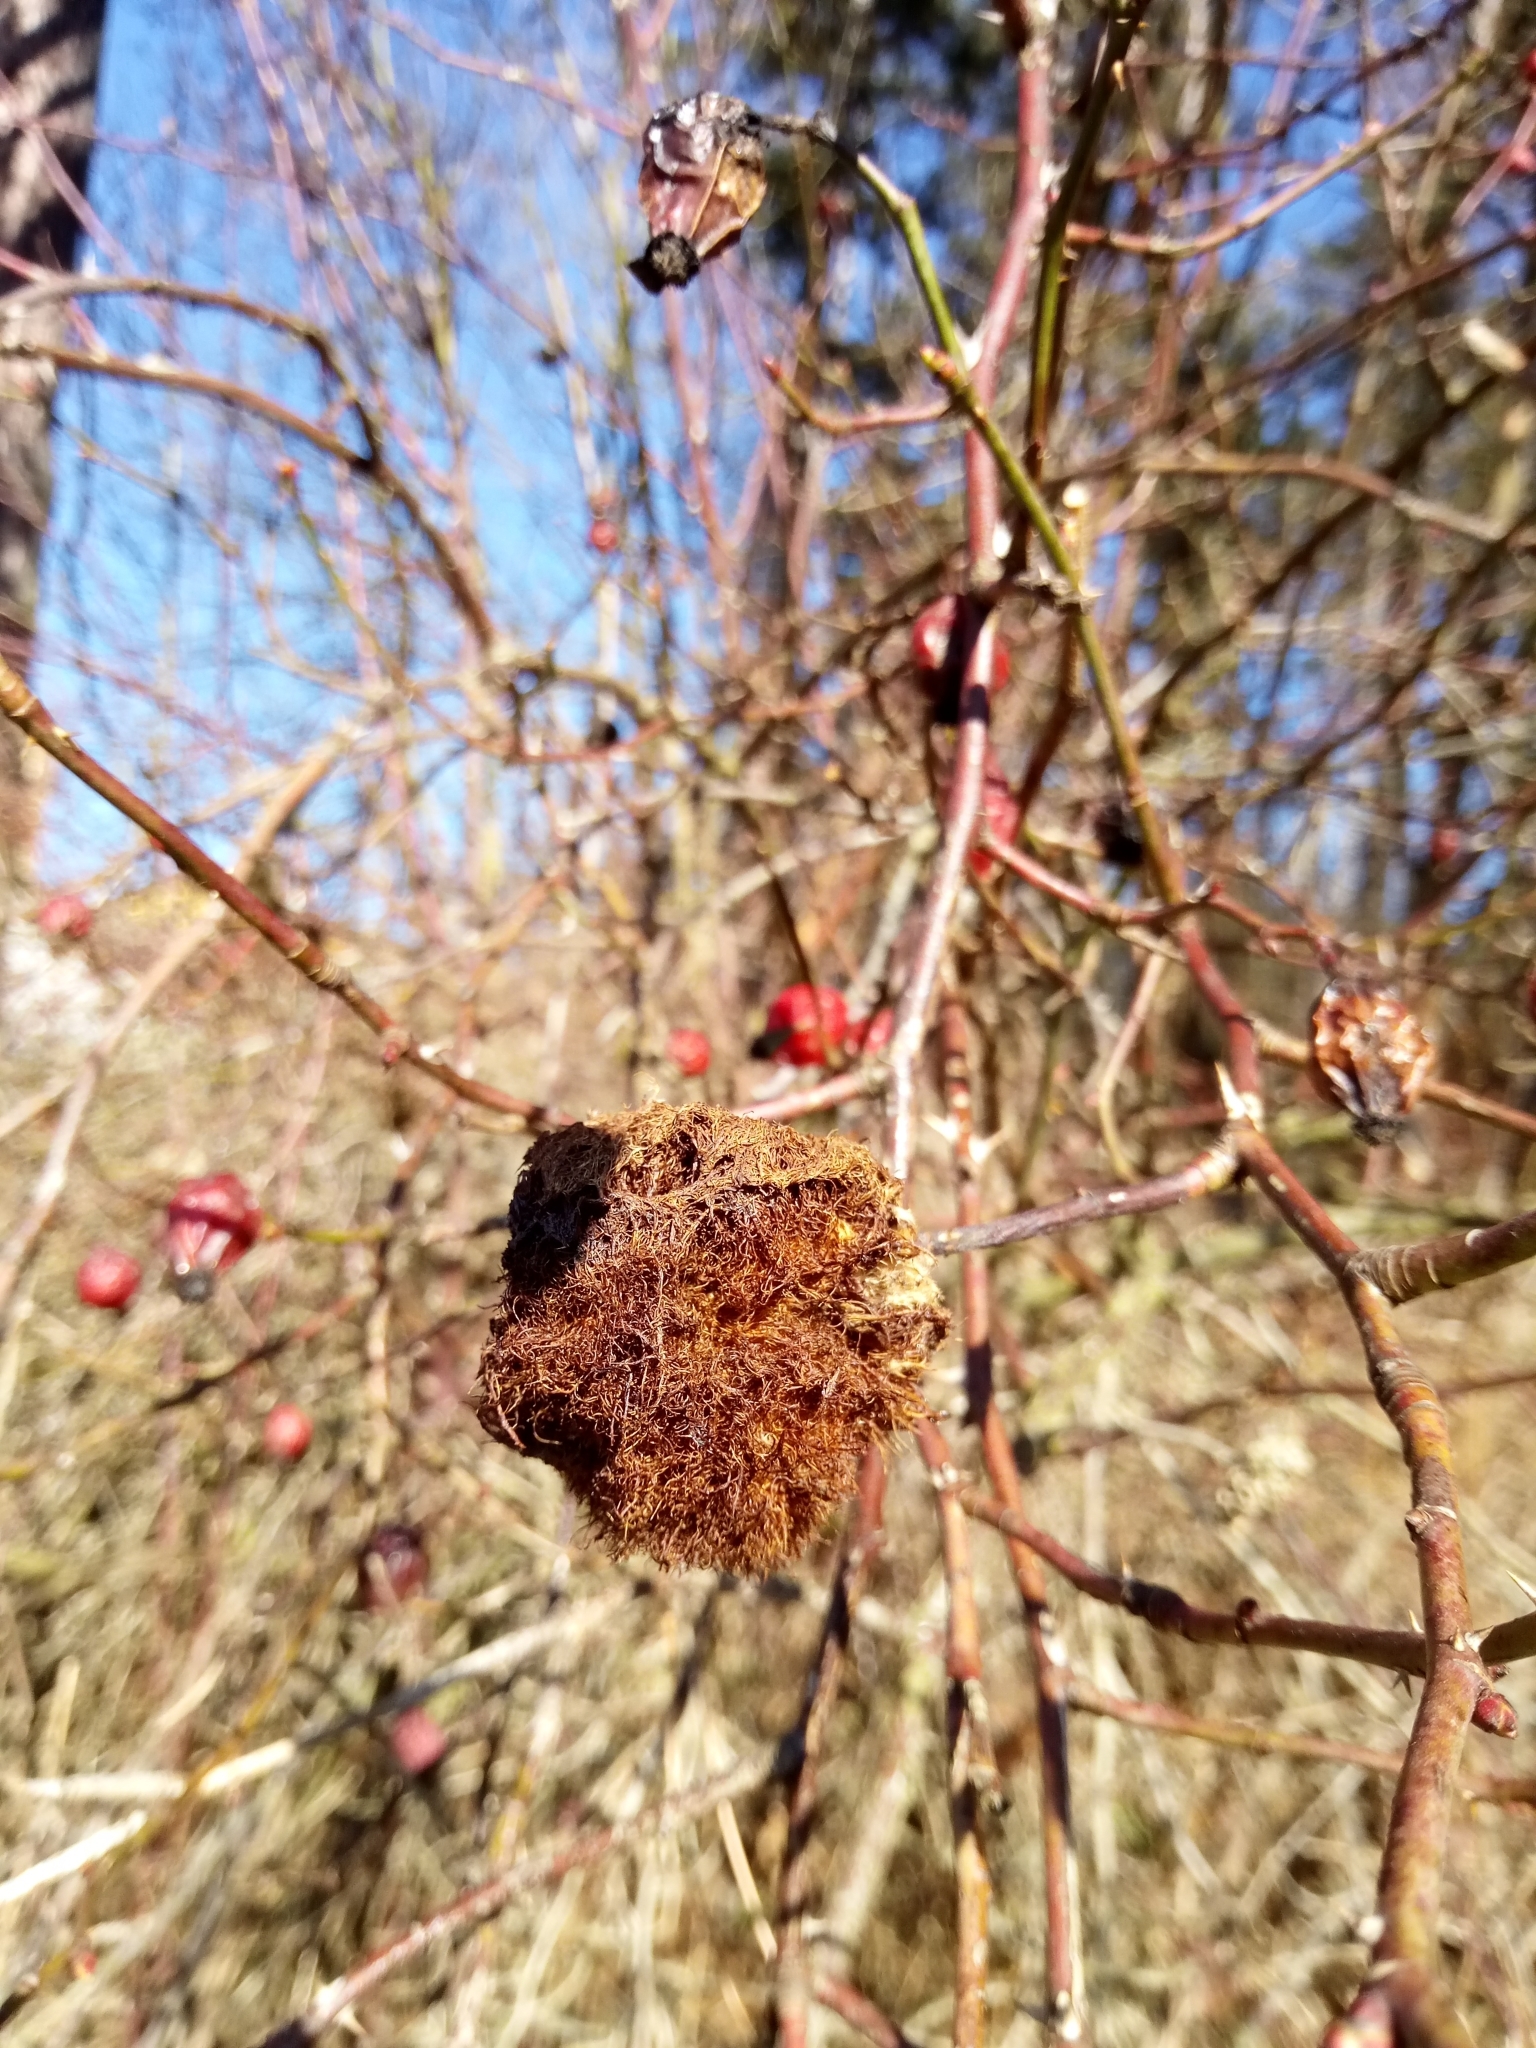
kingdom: Animalia
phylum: Arthropoda
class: Insecta
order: Hymenoptera
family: Cynipidae
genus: Diplolepis
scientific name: Diplolepis rosae
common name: Bedeguar gall
